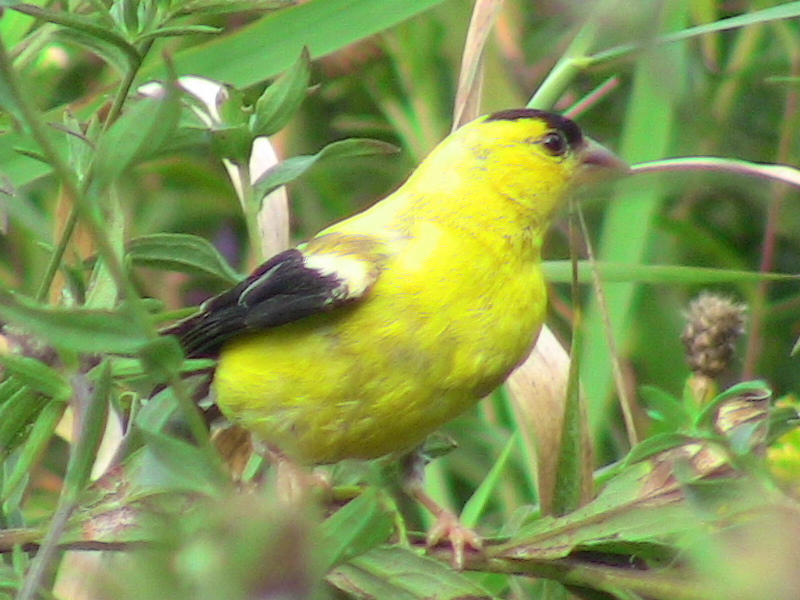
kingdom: Animalia
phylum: Chordata
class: Aves
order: Passeriformes
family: Fringillidae
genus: Spinus
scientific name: Spinus tristis
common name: American goldfinch
